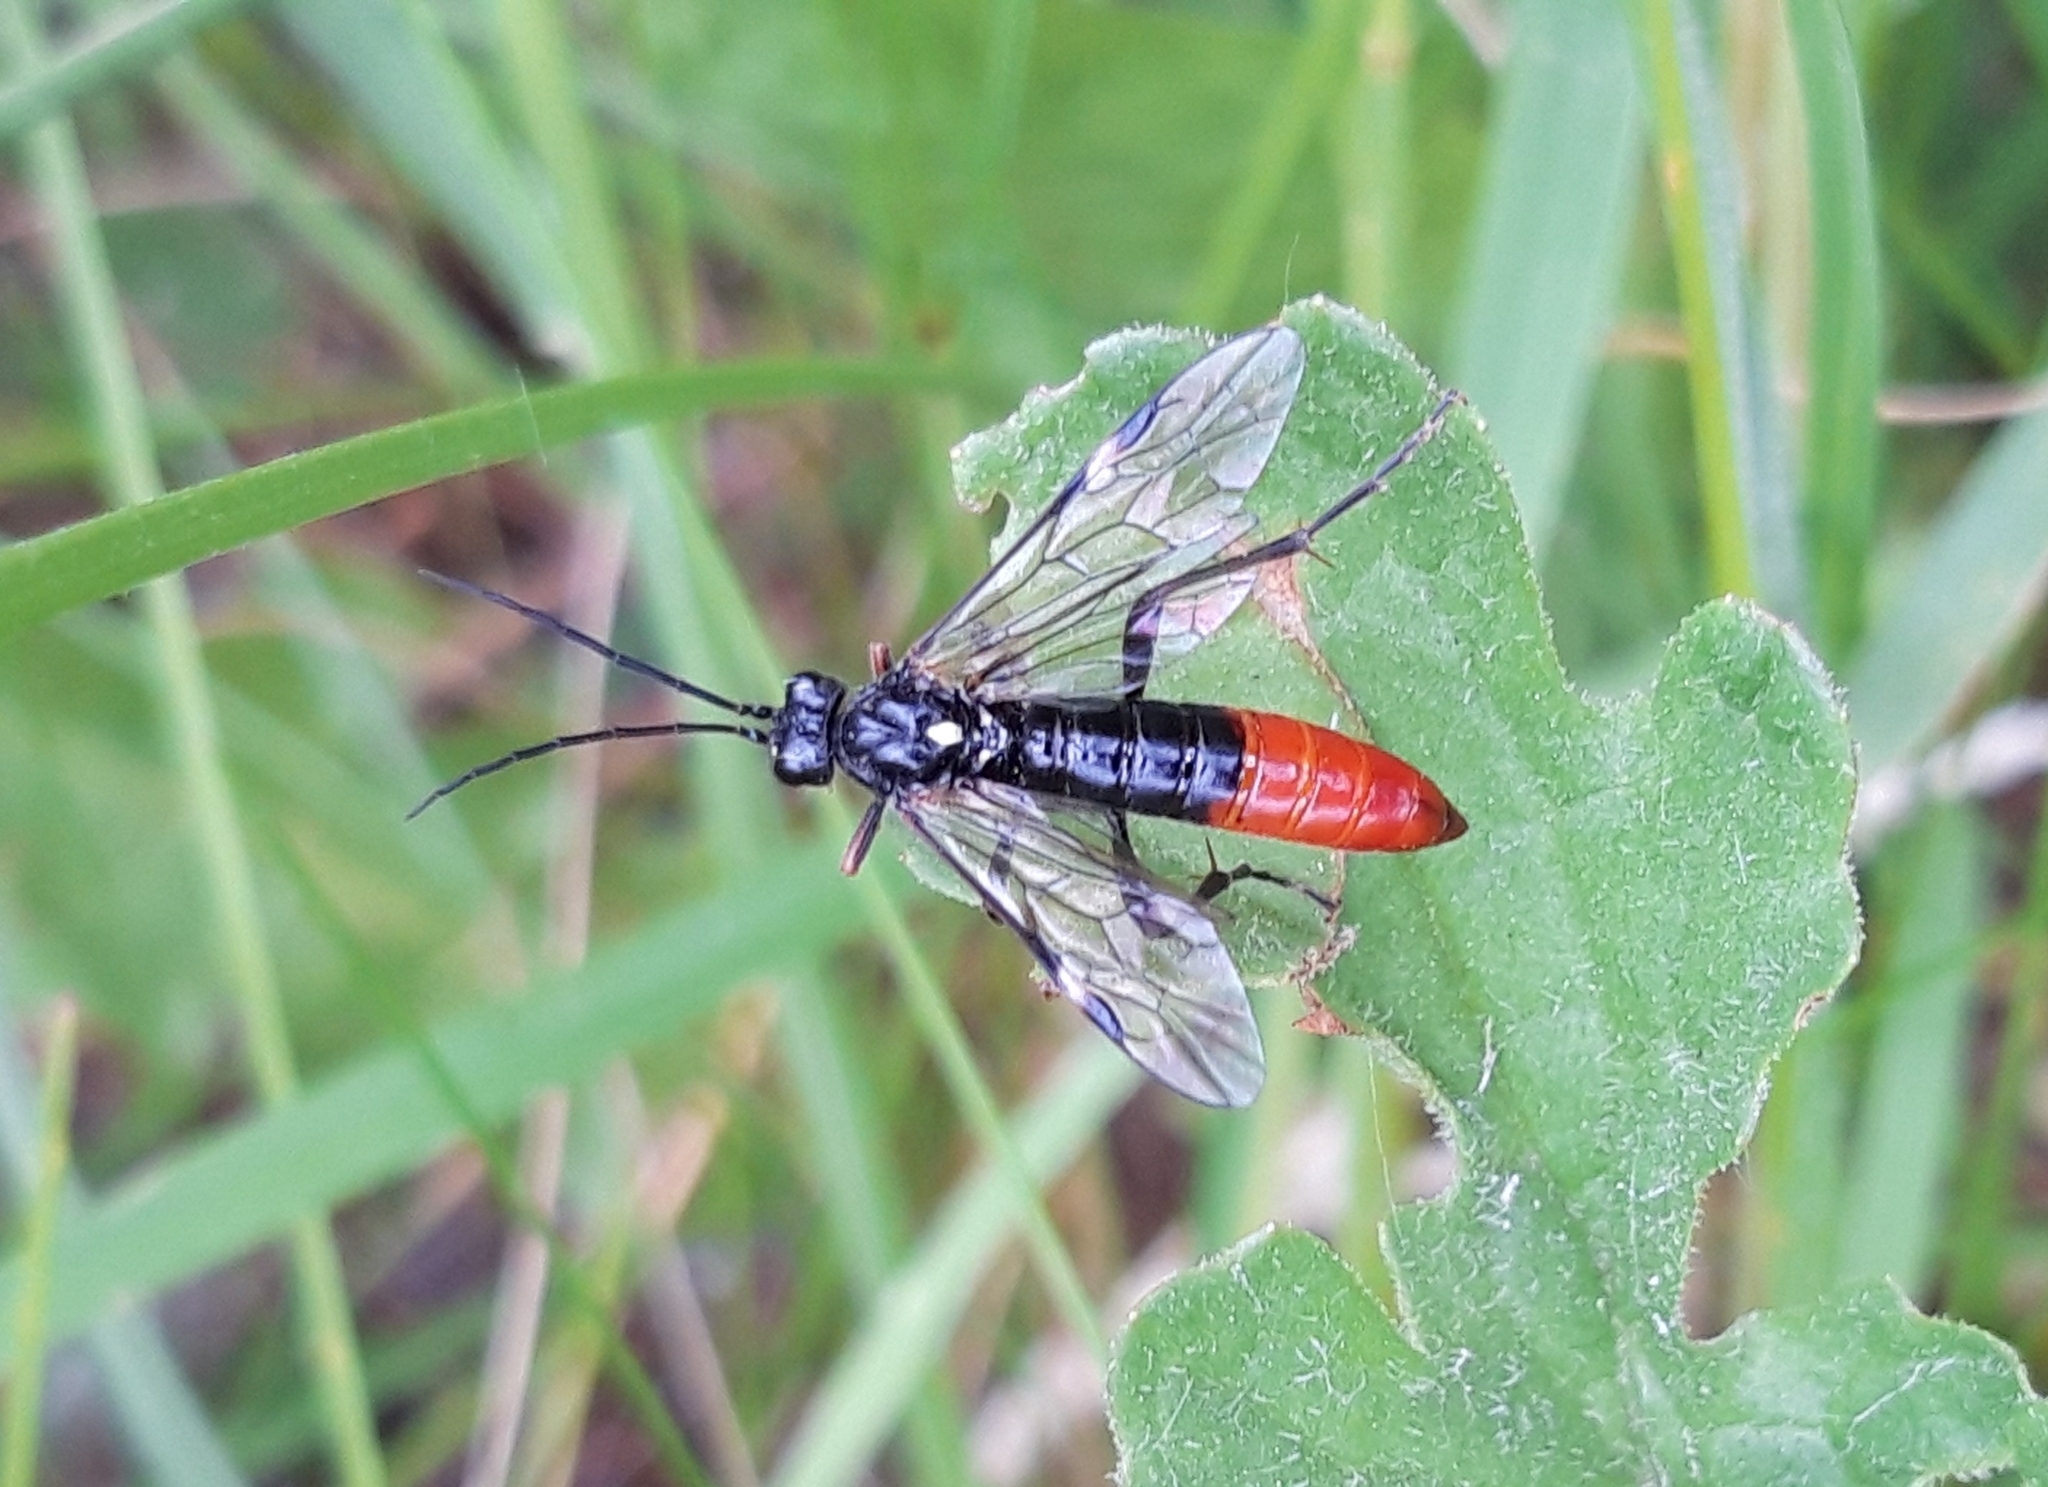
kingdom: Animalia
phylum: Arthropoda
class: Insecta
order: Hymenoptera
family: Tenthredinidae
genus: Tenthredopsis
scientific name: Tenthredopsis litterata
